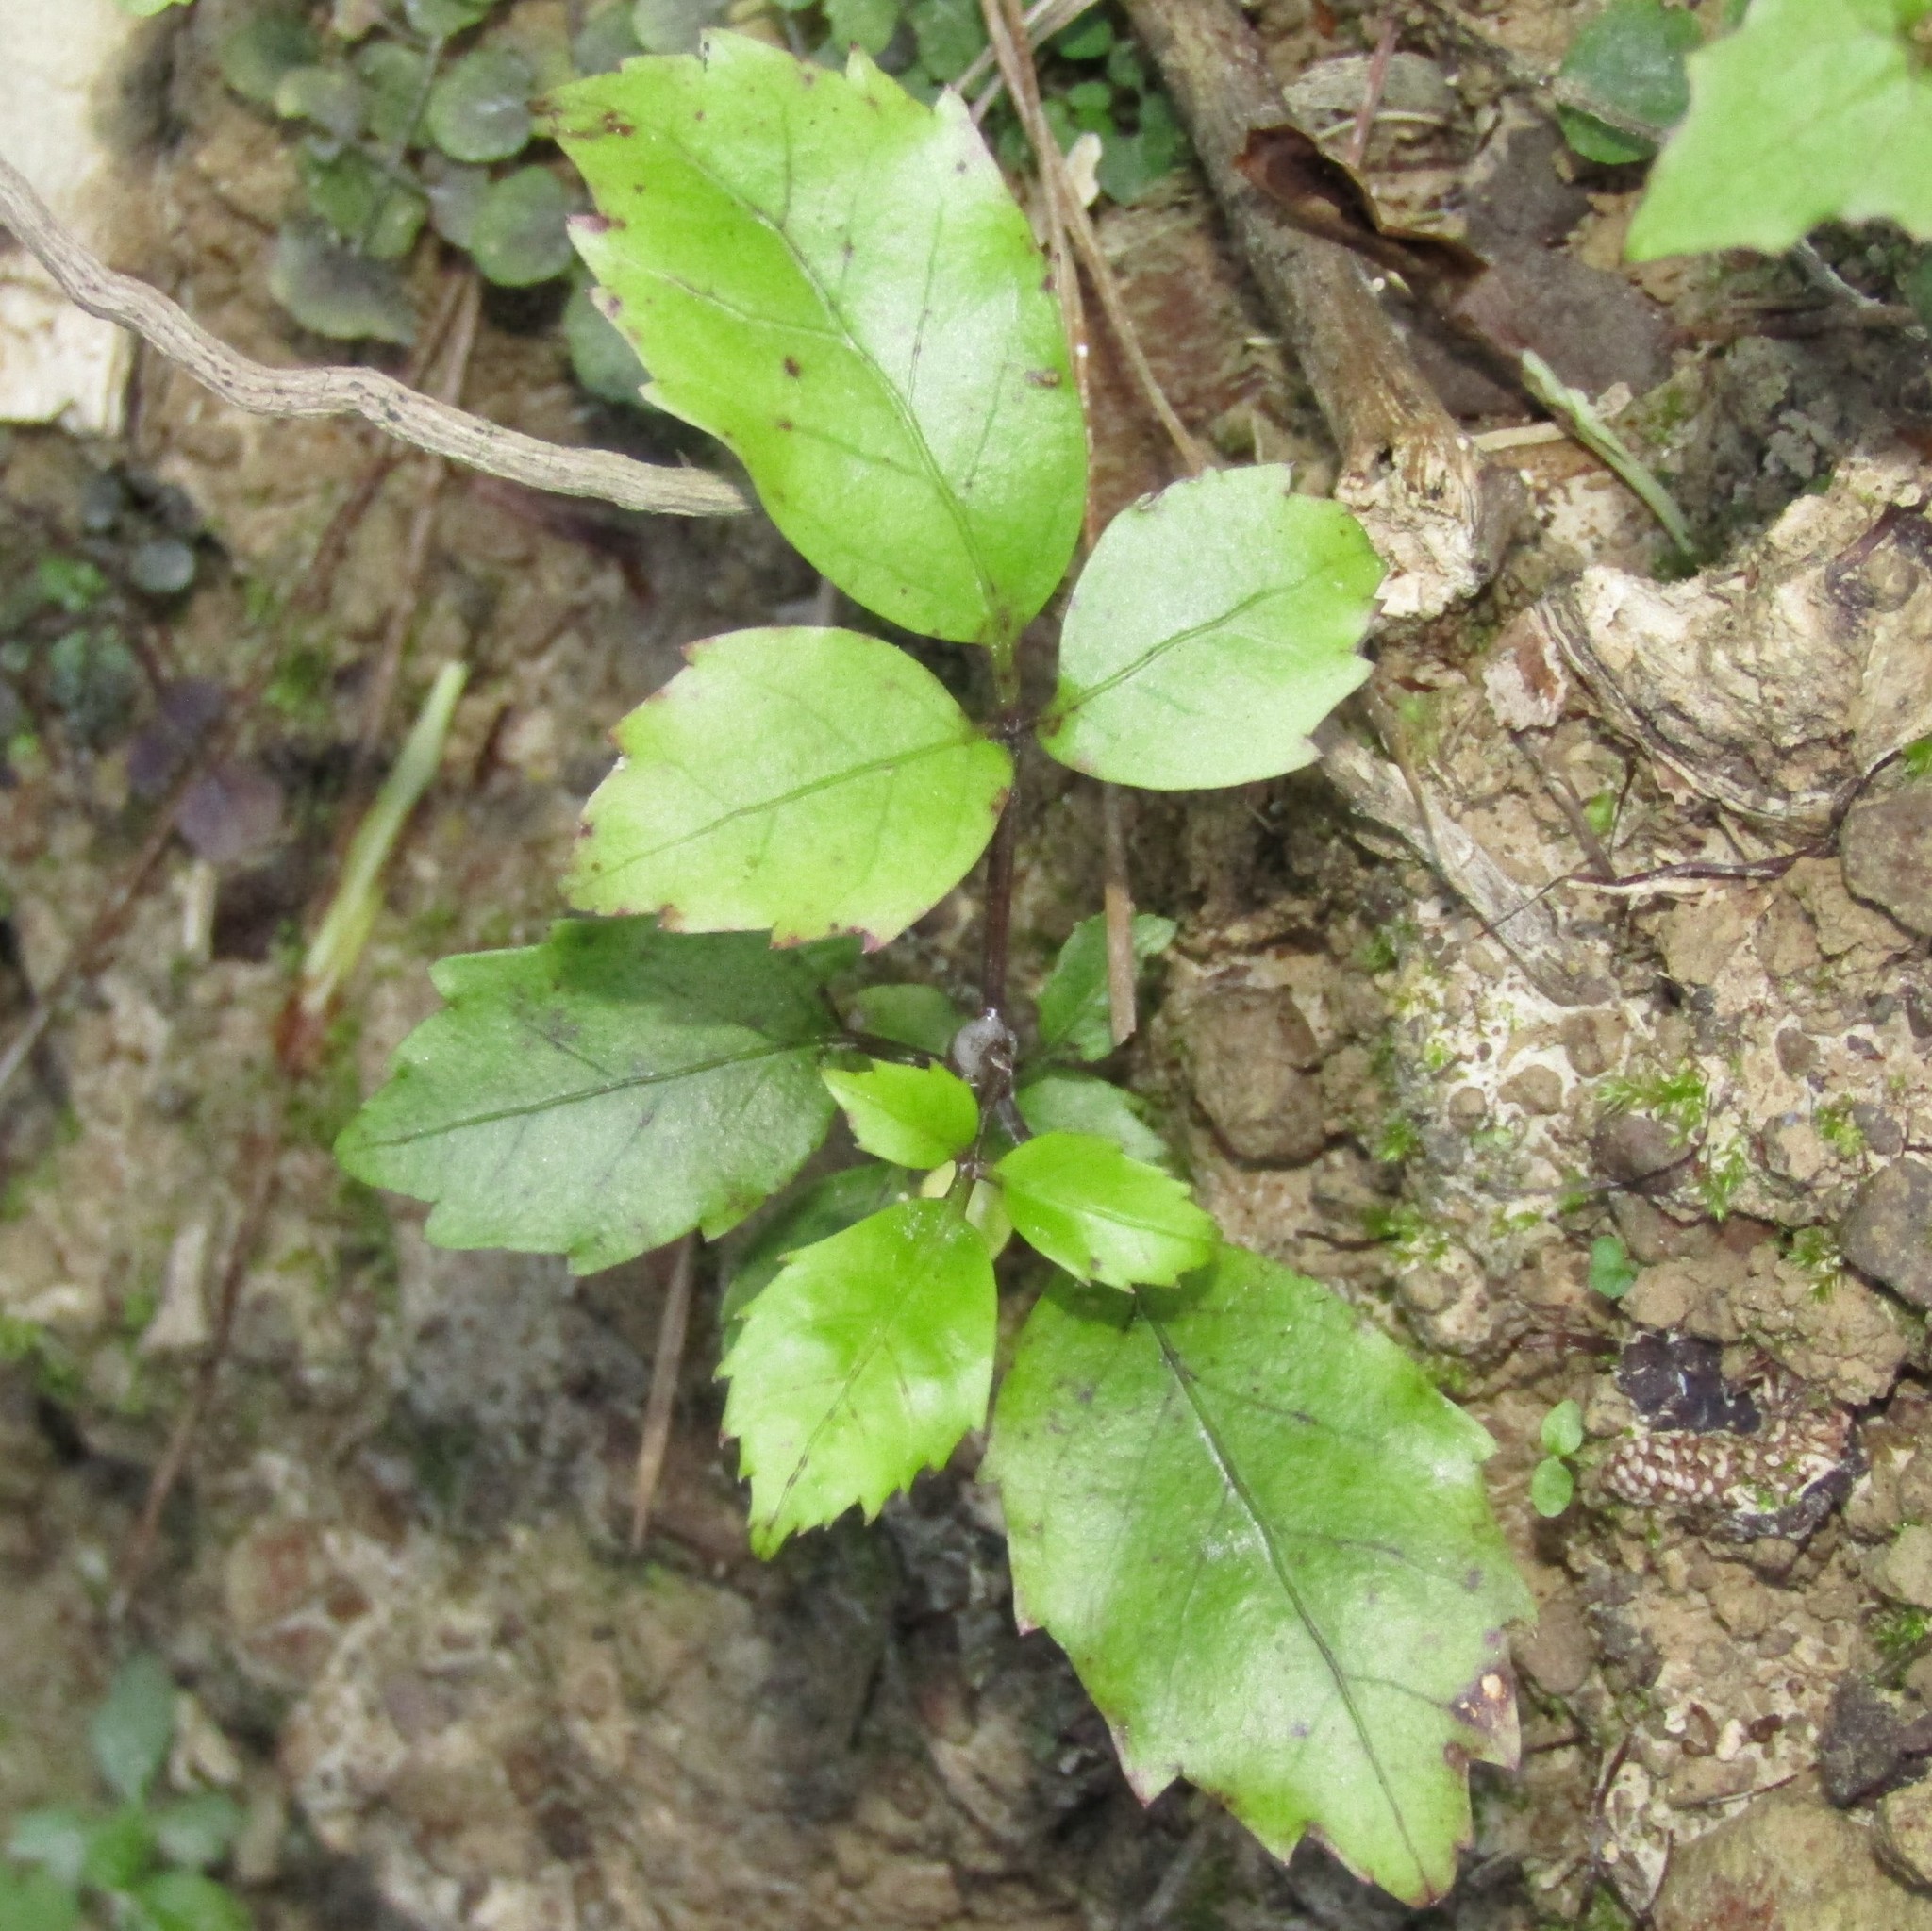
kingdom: Plantae
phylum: Tracheophyta
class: Magnoliopsida
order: Apiales
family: Araliaceae
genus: Neopanax
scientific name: Neopanax arboreus
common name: Five-fingers
